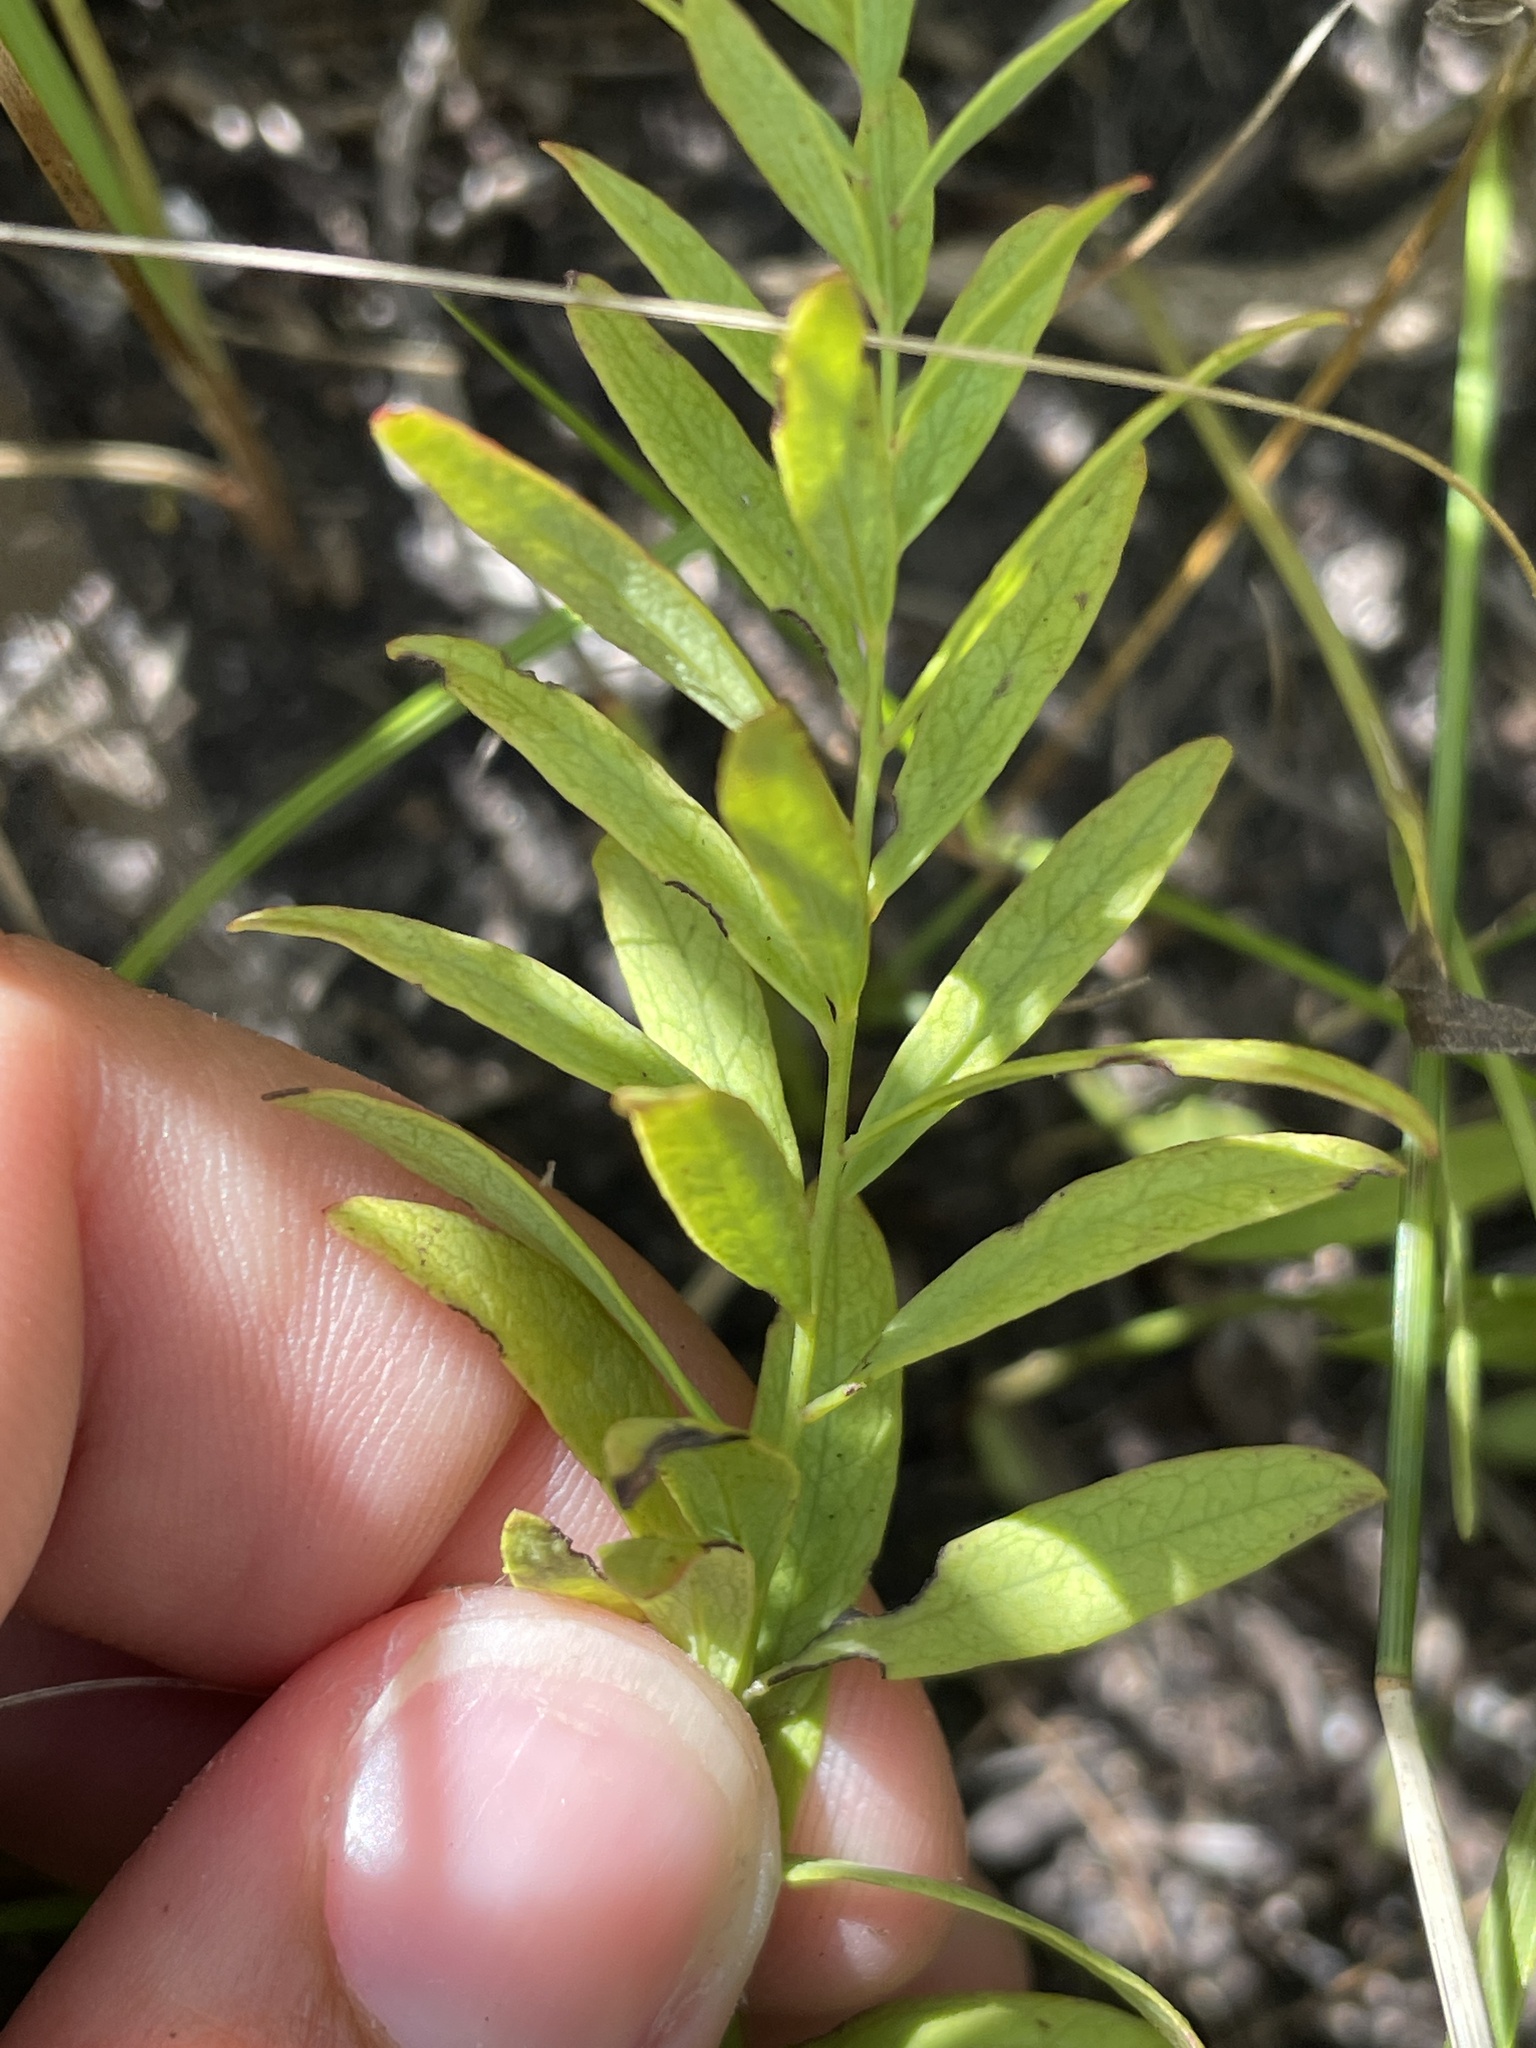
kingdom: Plantae
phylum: Tracheophyta
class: Magnoliopsida
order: Santalales
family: Comandraceae
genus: Comandra
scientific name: Comandra umbellata
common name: Bastard toadflax
